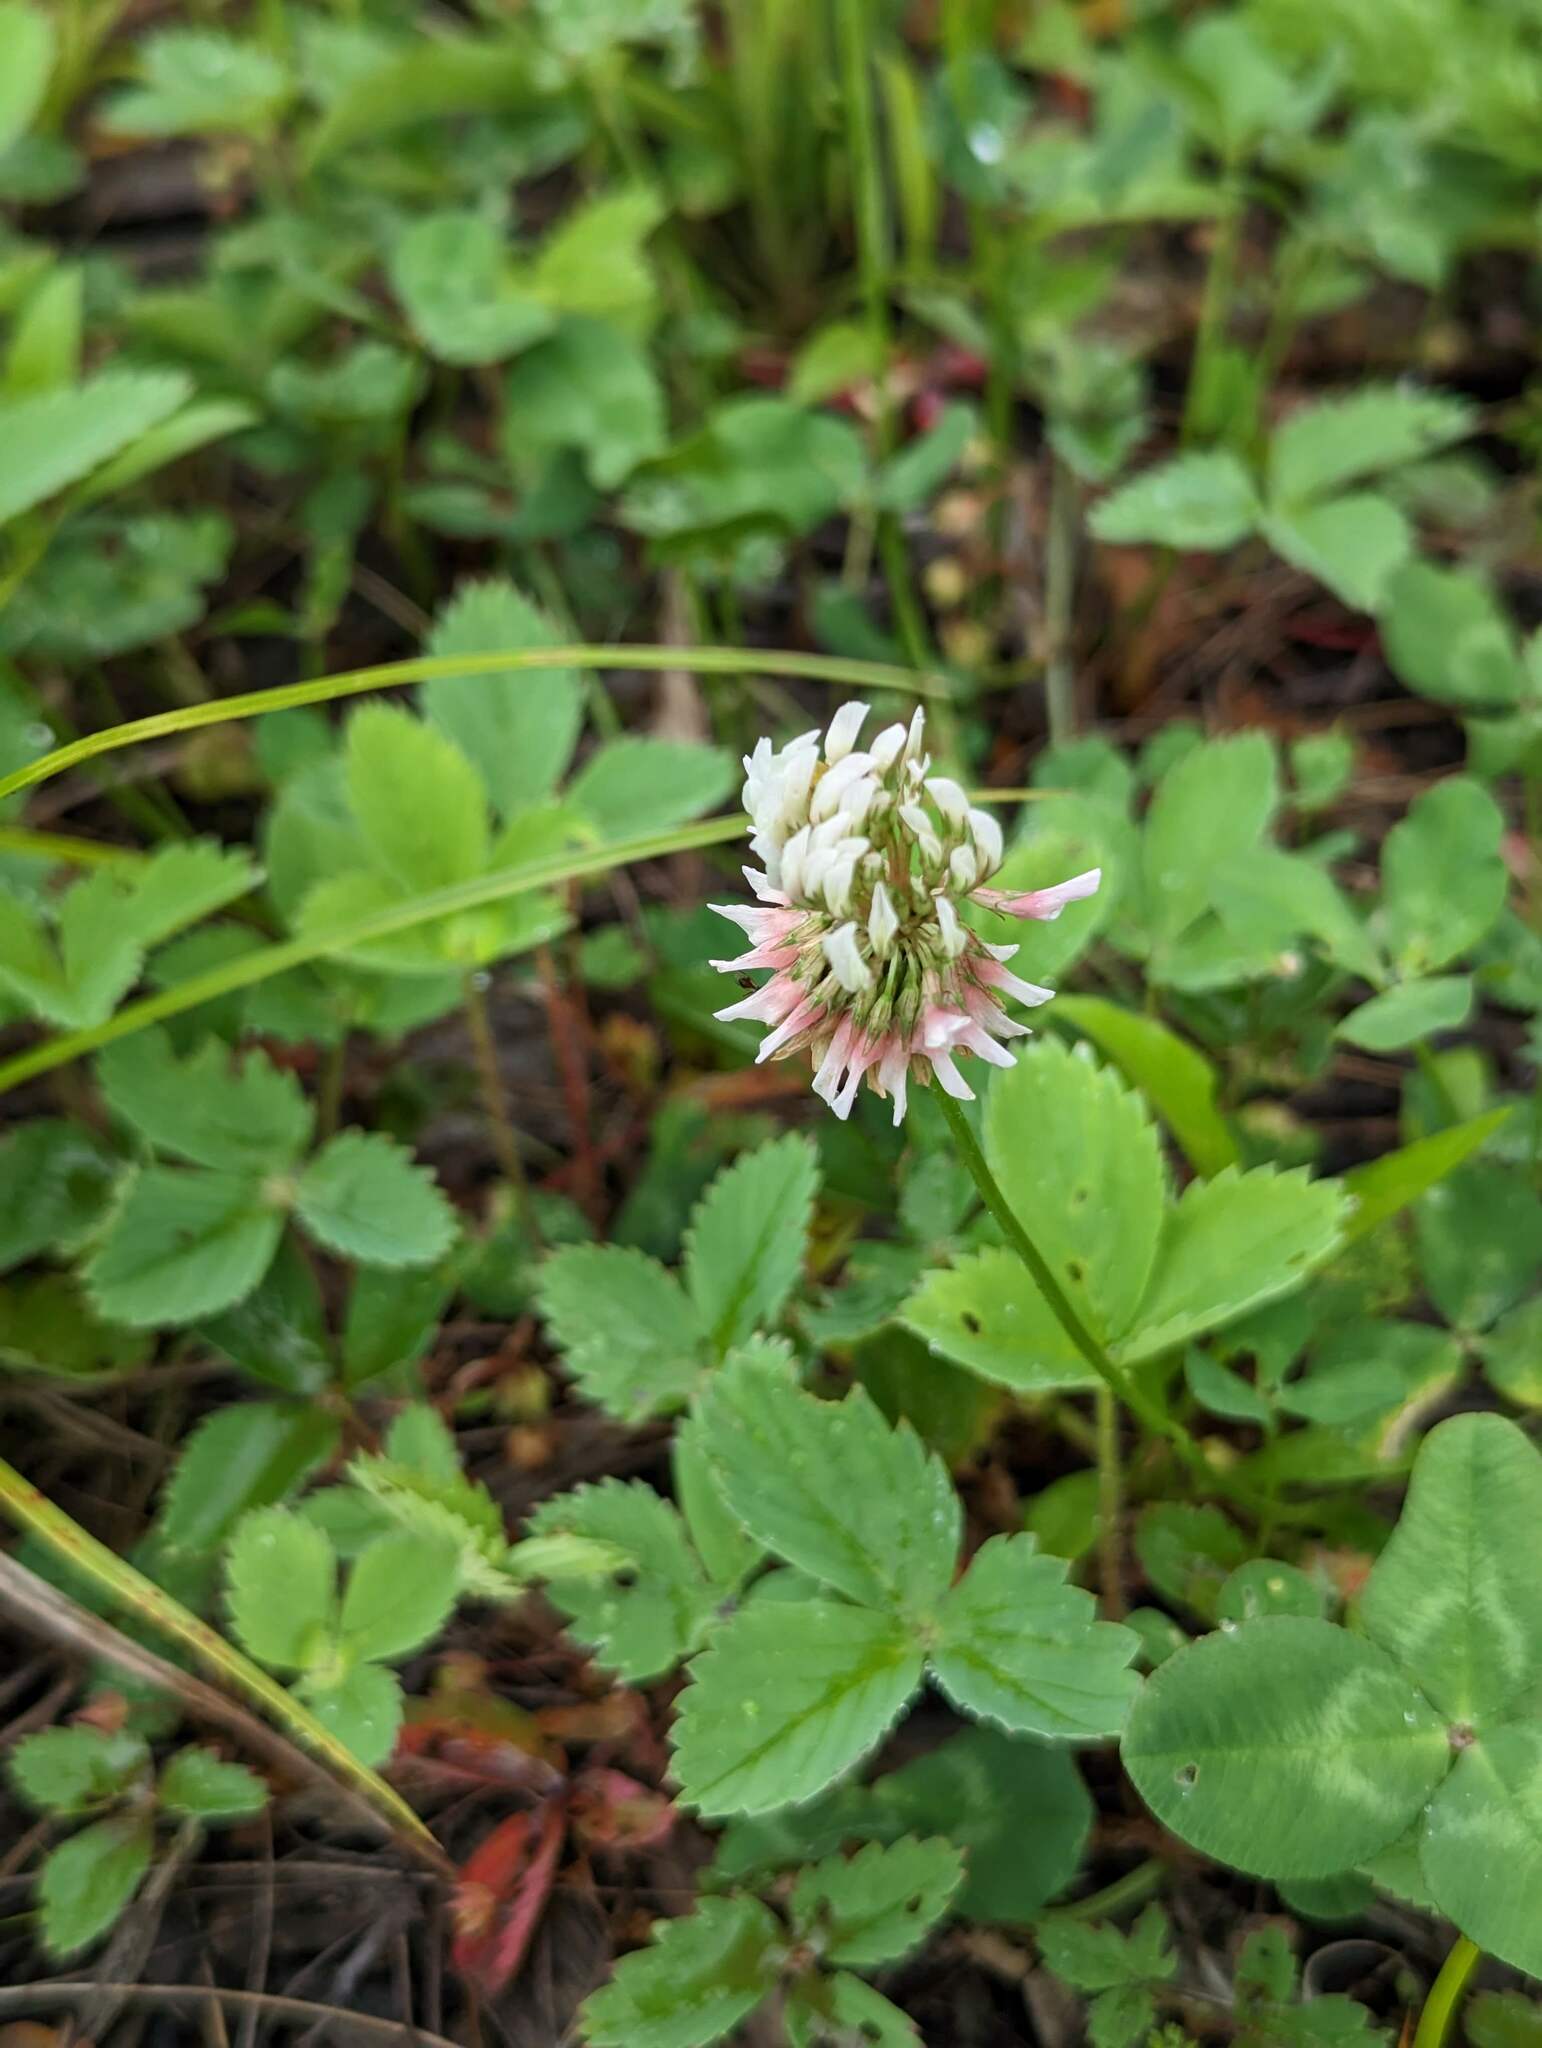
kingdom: Plantae
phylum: Tracheophyta
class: Magnoliopsida
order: Fabales
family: Fabaceae
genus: Trifolium
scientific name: Trifolium repens
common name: White clover
